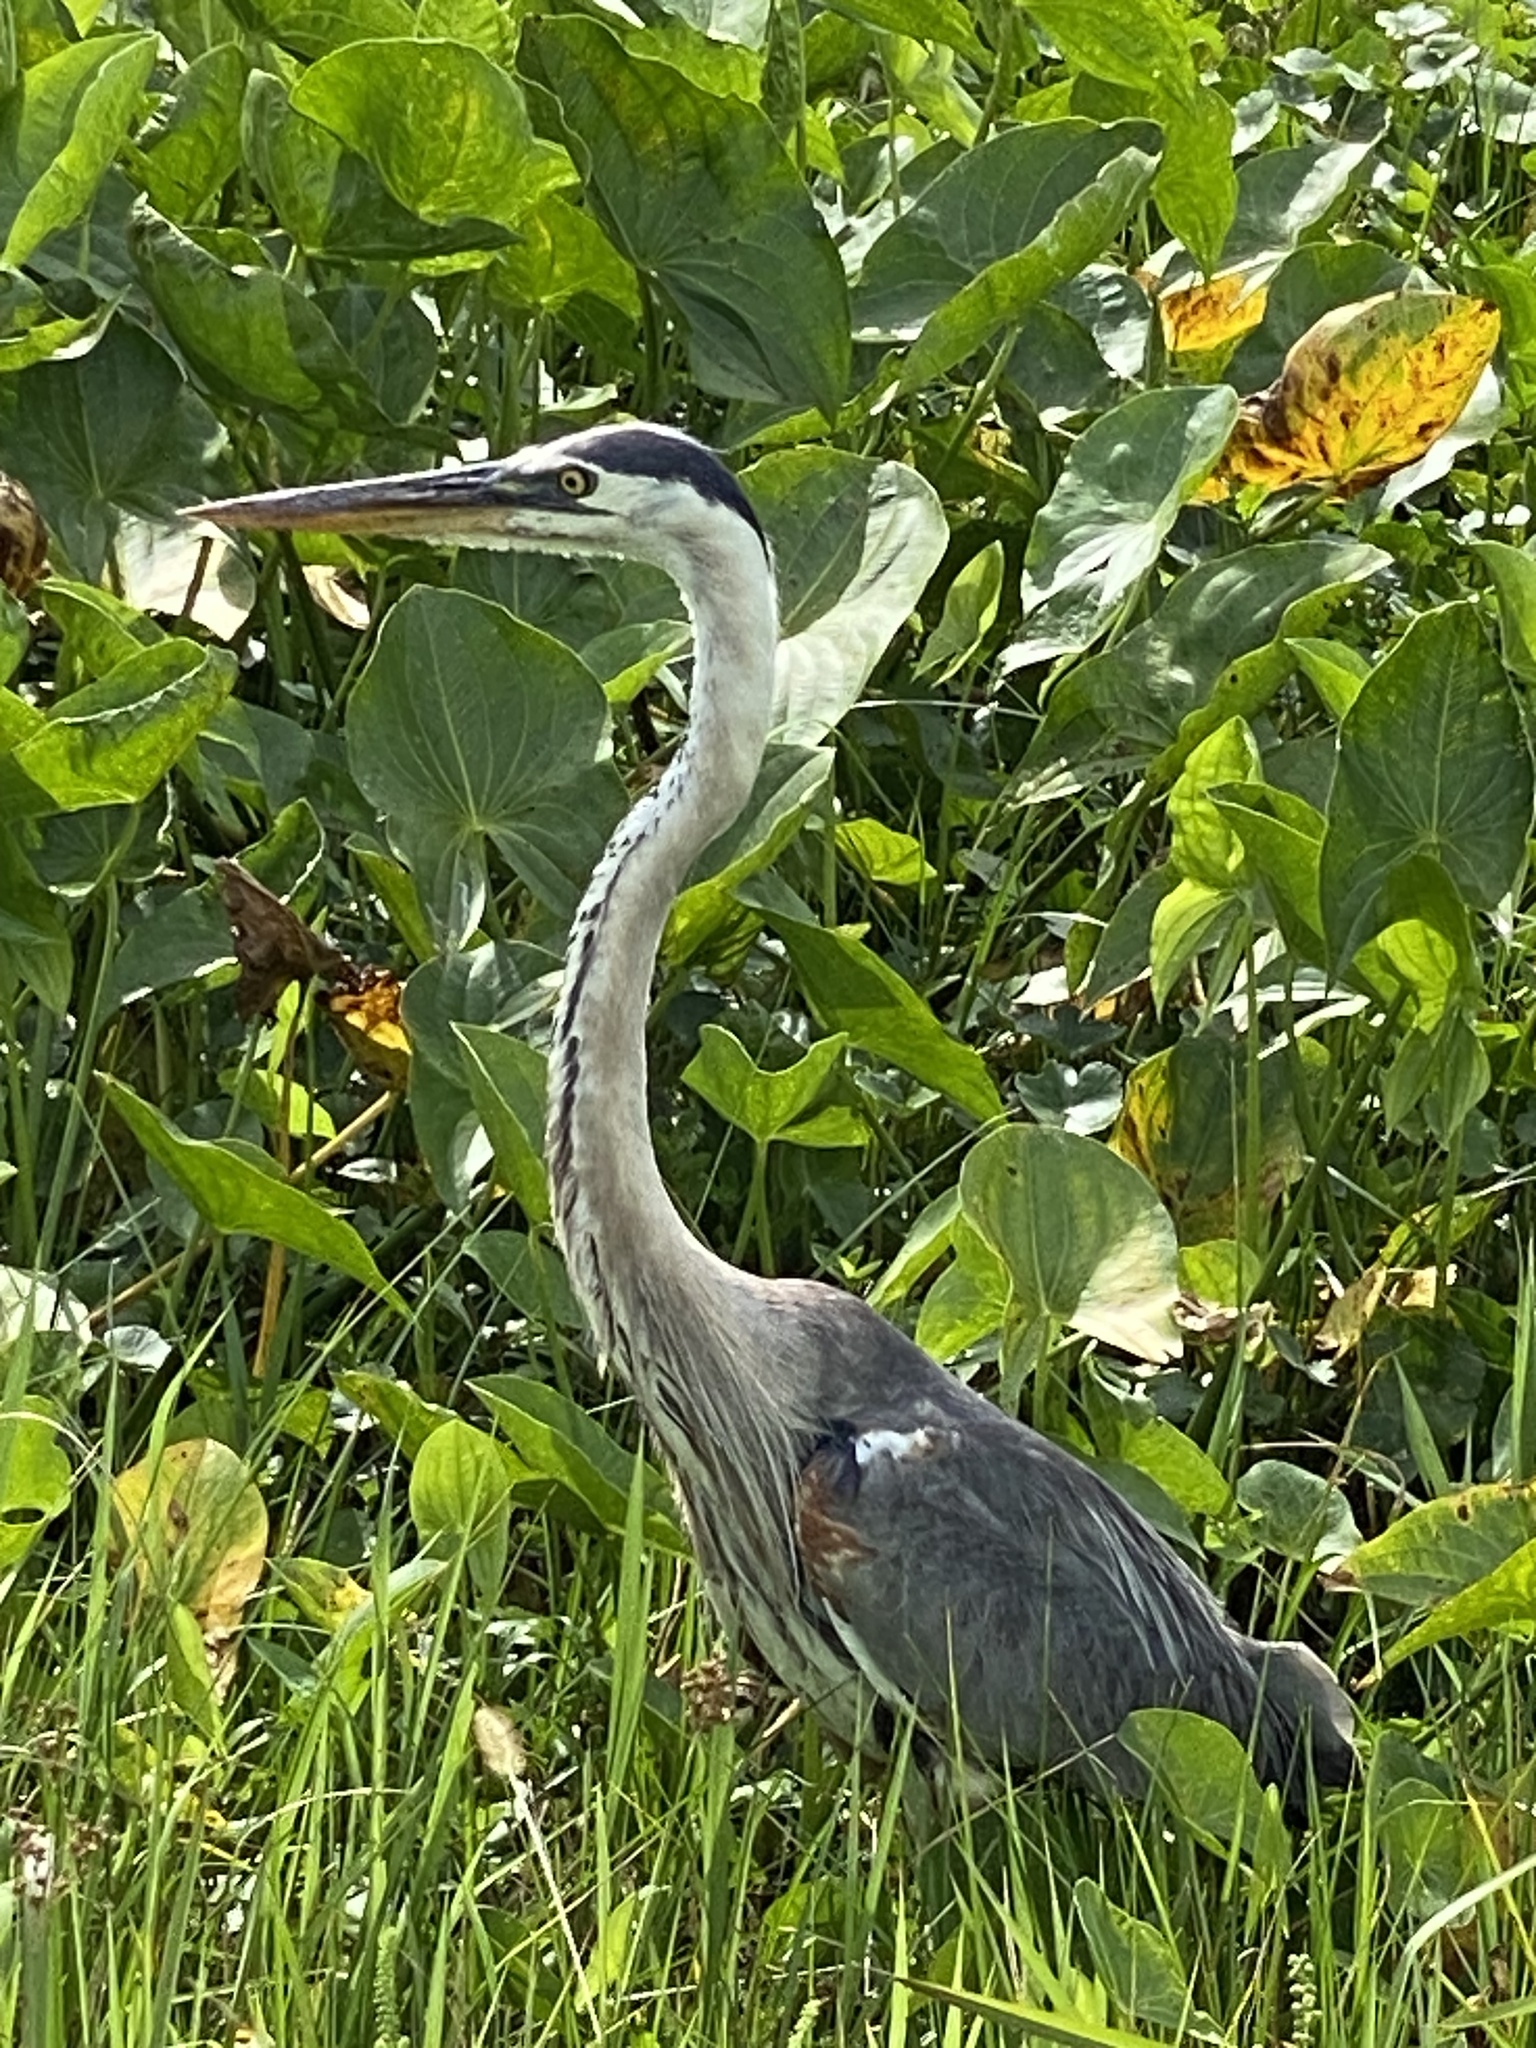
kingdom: Animalia
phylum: Chordata
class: Aves
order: Pelecaniformes
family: Ardeidae
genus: Ardea
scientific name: Ardea herodias
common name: Great blue heron
